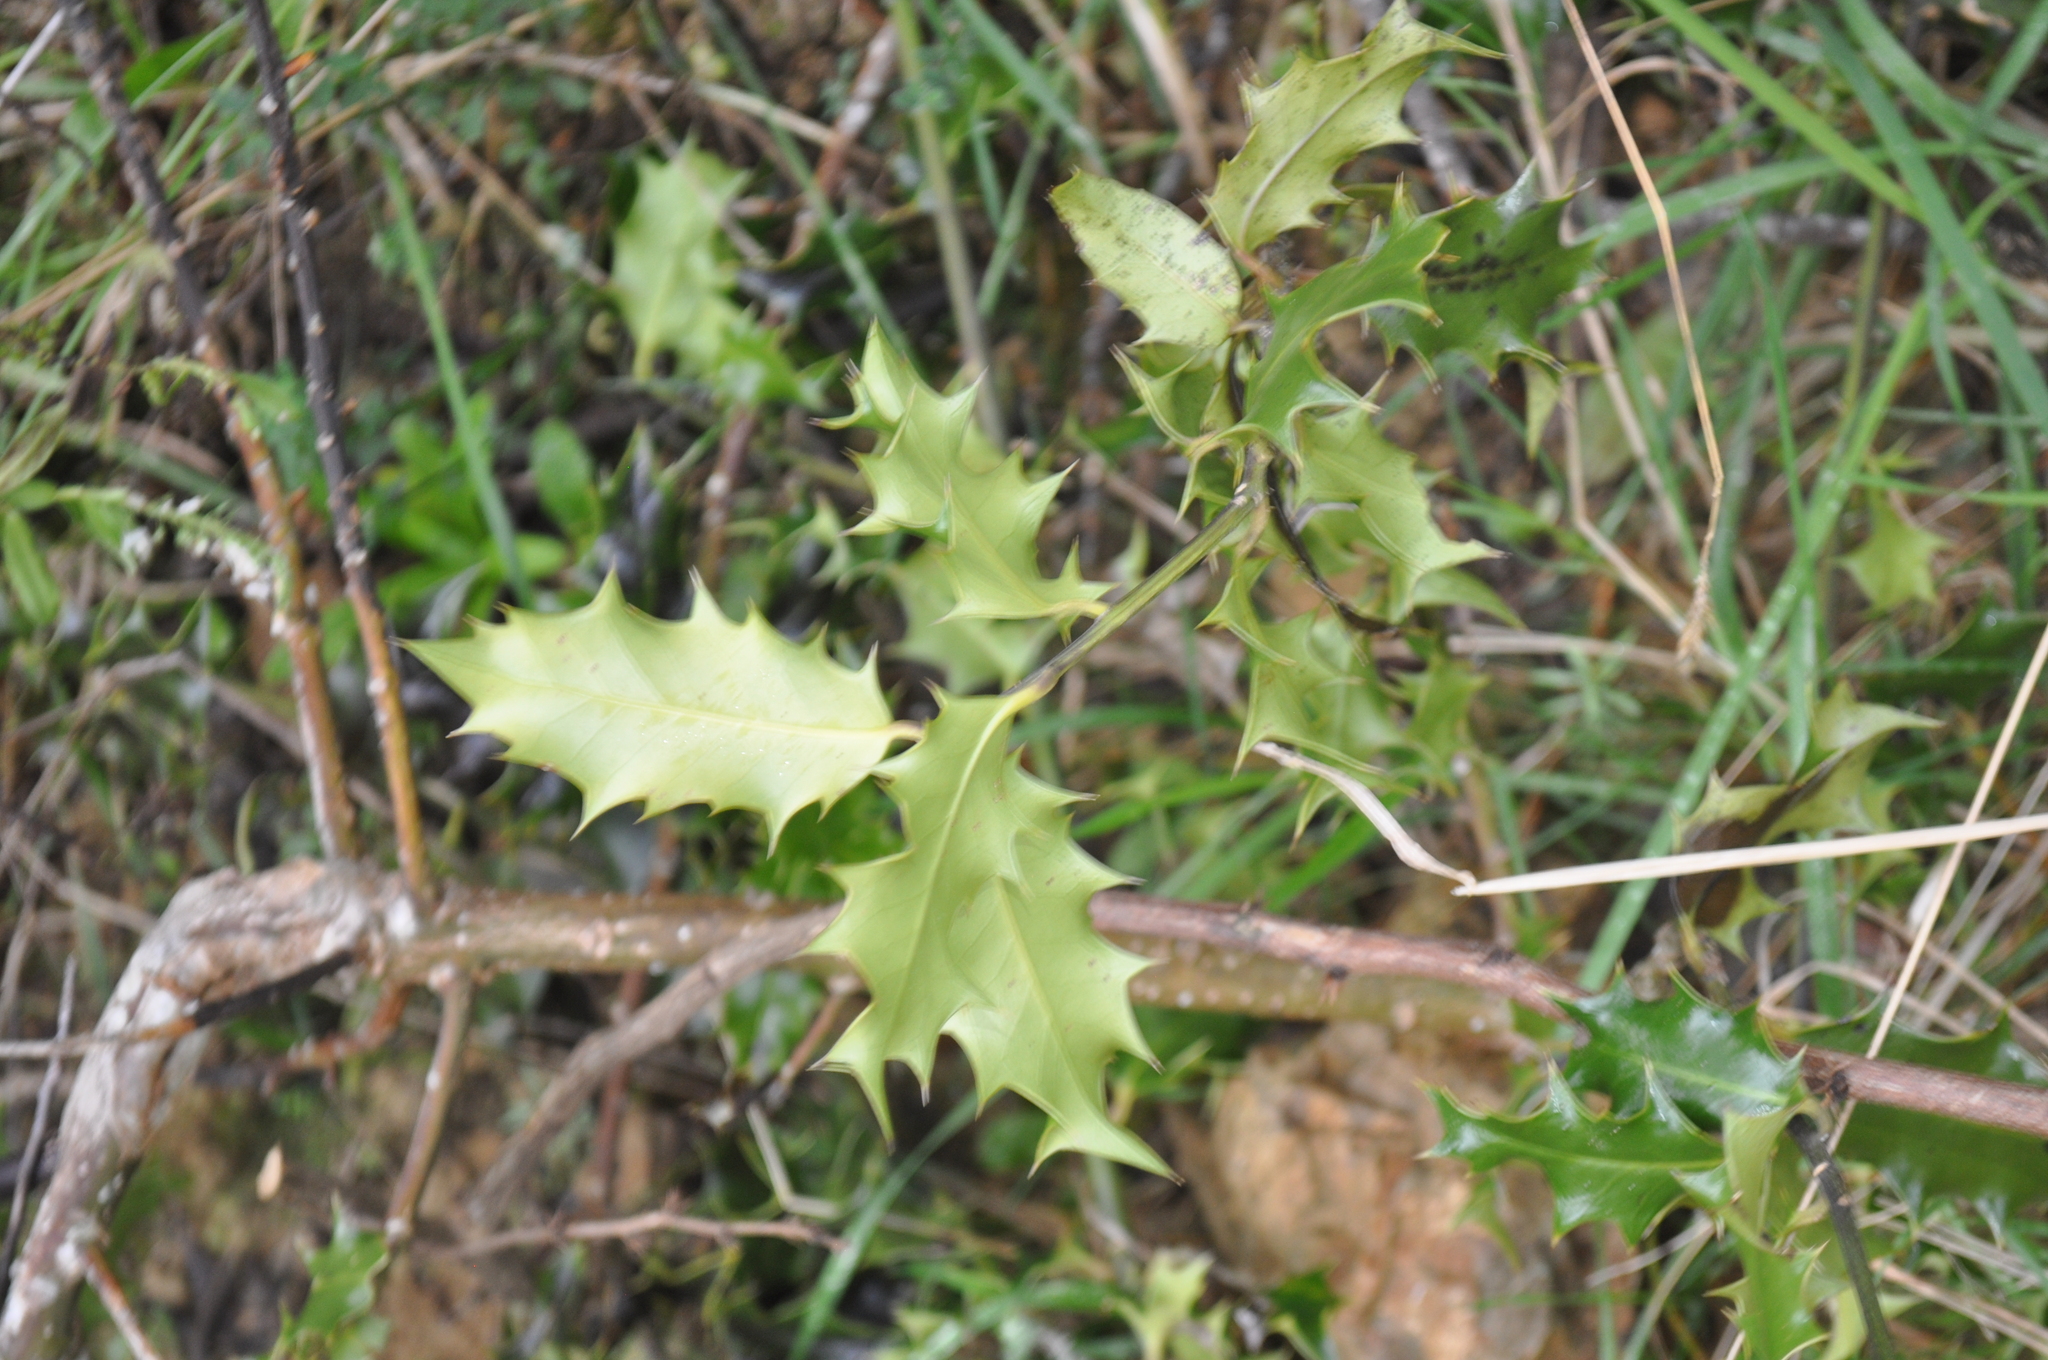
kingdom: Plantae
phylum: Tracheophyta
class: Magnoliopsida
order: Aquifoliales
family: Aquifoliaceae
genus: Ilex
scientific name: Ilex aquifolium
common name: English holly
